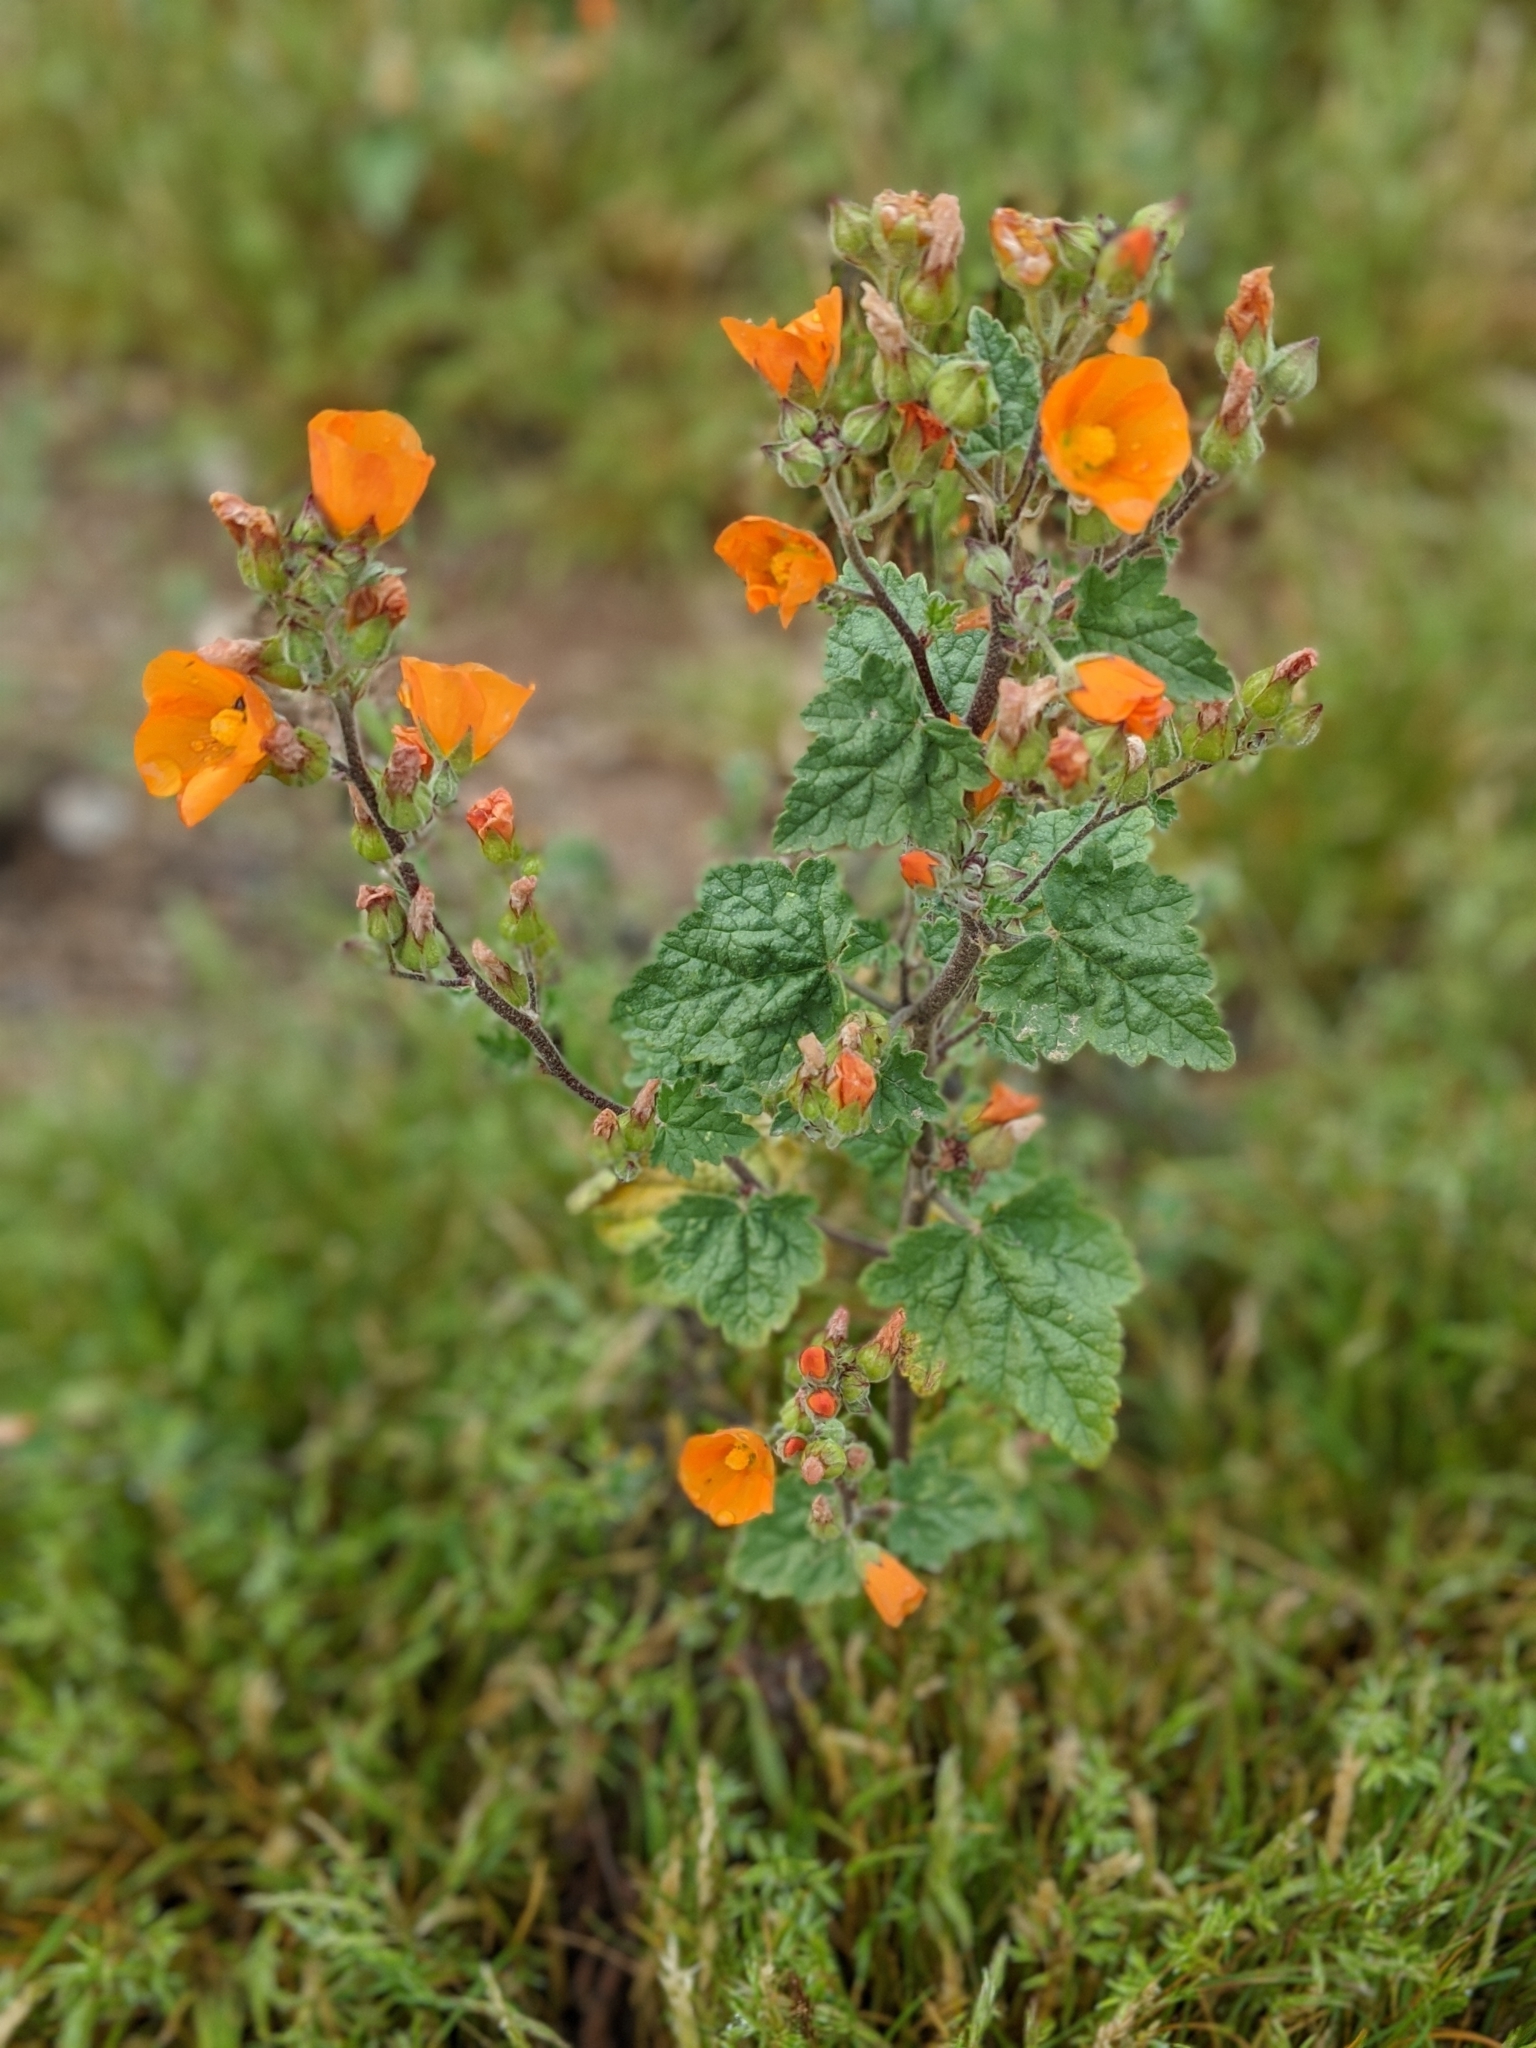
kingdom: Plantae
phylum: Tracheophyta
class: Magnoliopsida
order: Malvales
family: Malvaceae
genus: Sphaeralcea
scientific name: Sphaeralcea coulteri
